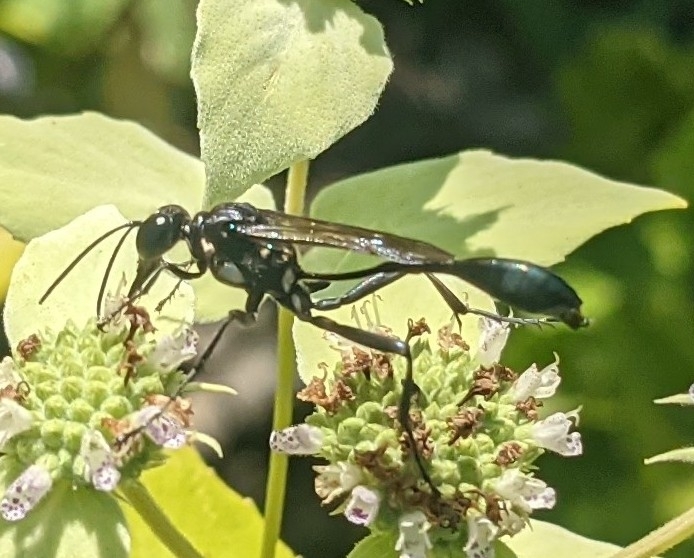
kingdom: Animalia
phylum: Arthropoda
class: Insecta
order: Hymenoptera
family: Sphecidae
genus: Eremnophila
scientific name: Eremnophila aureonotata
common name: Gold-marked thread-waisted wasp
